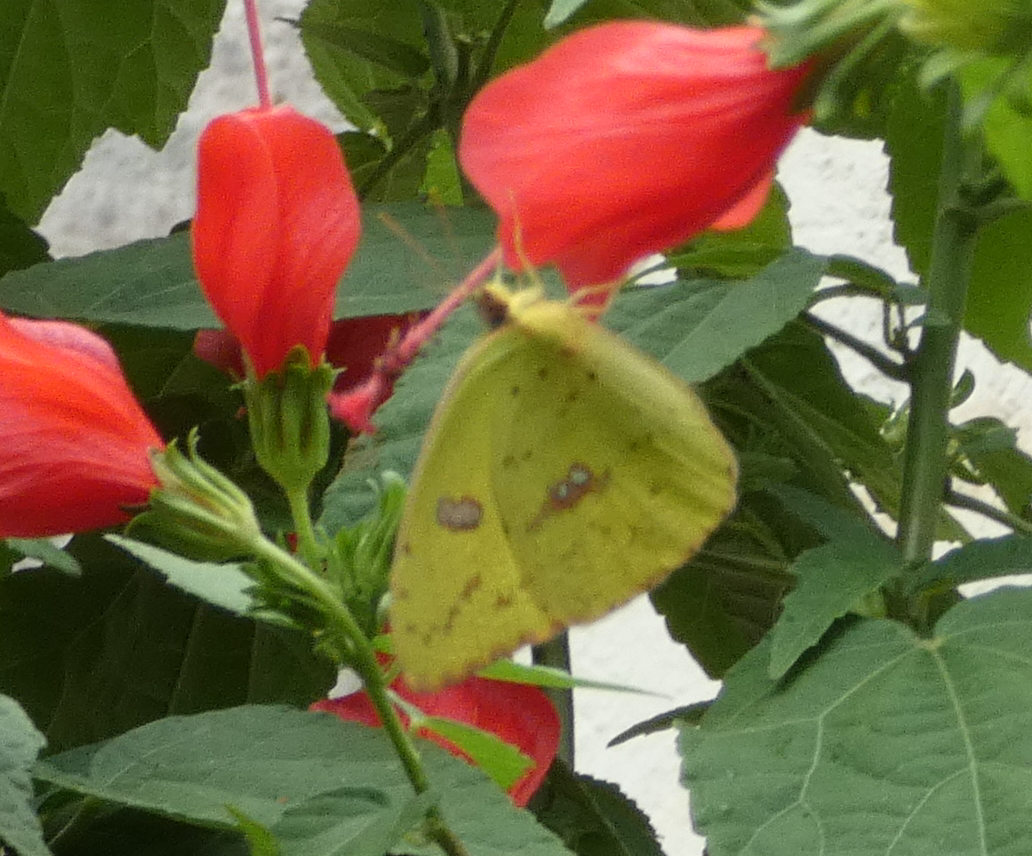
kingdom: Animalia
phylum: Arthropoda
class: Insecta
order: Lepidoptera
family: Pieridae
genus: Phoebis
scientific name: Phoebis sennae
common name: Cloudless sulphur
